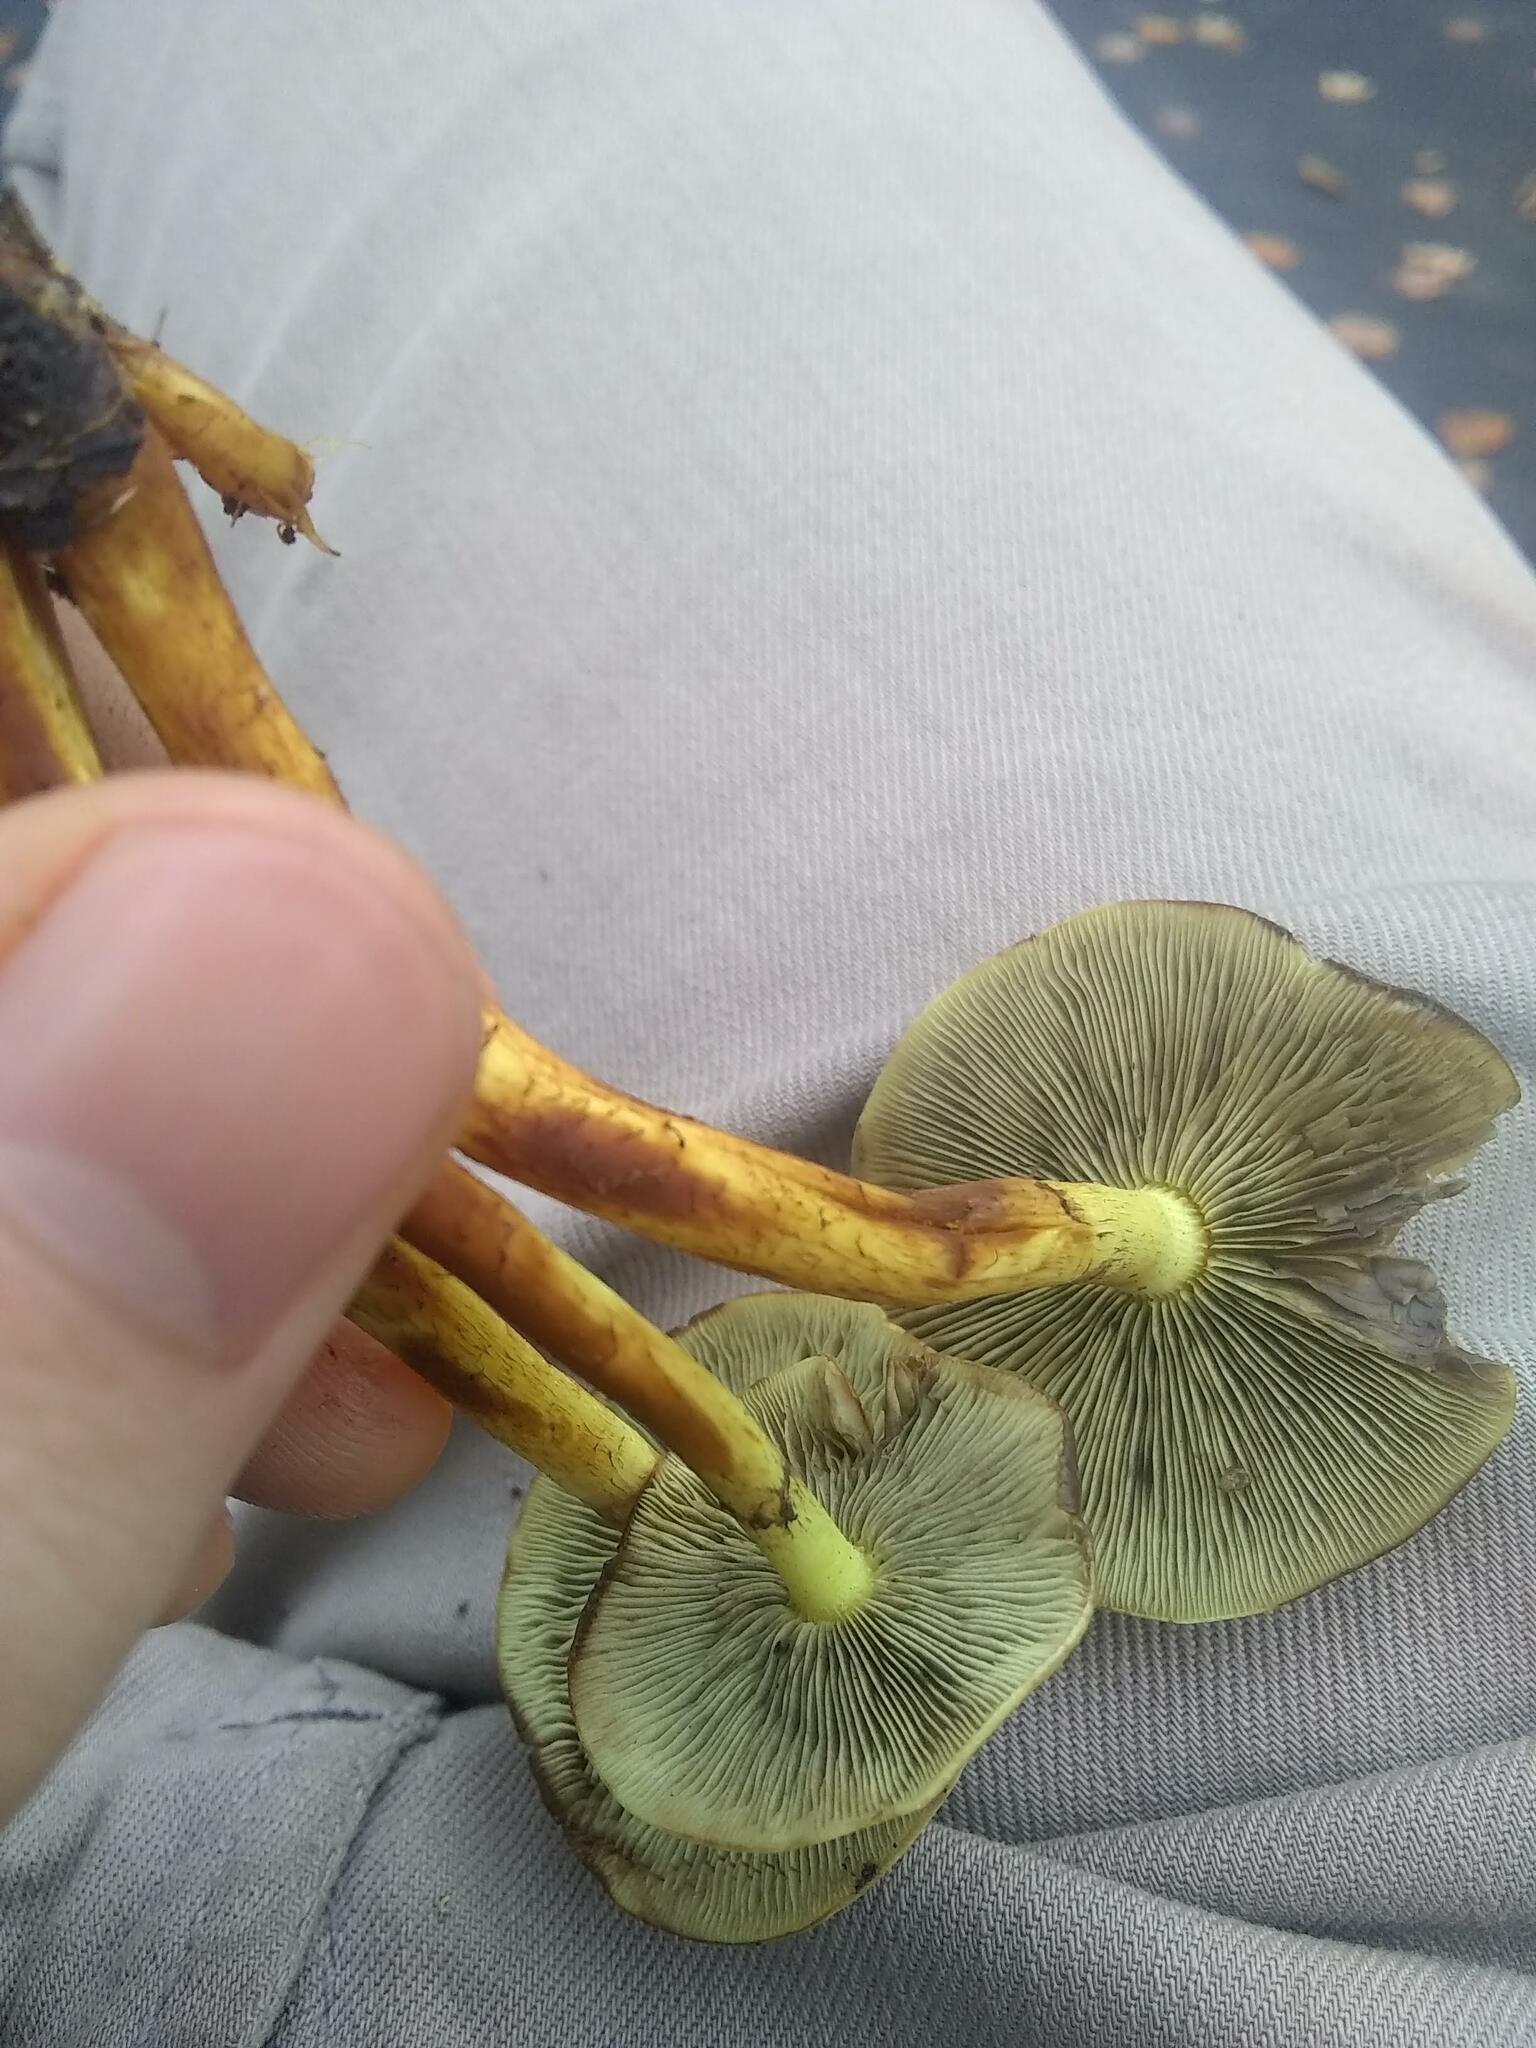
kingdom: Fungi
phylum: Basidiomycota
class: Agaricomycetes
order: Agaricales
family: Strophariaceae
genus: Hypholoma
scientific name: Hypholoma fasciculare
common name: Sulphur tuft
